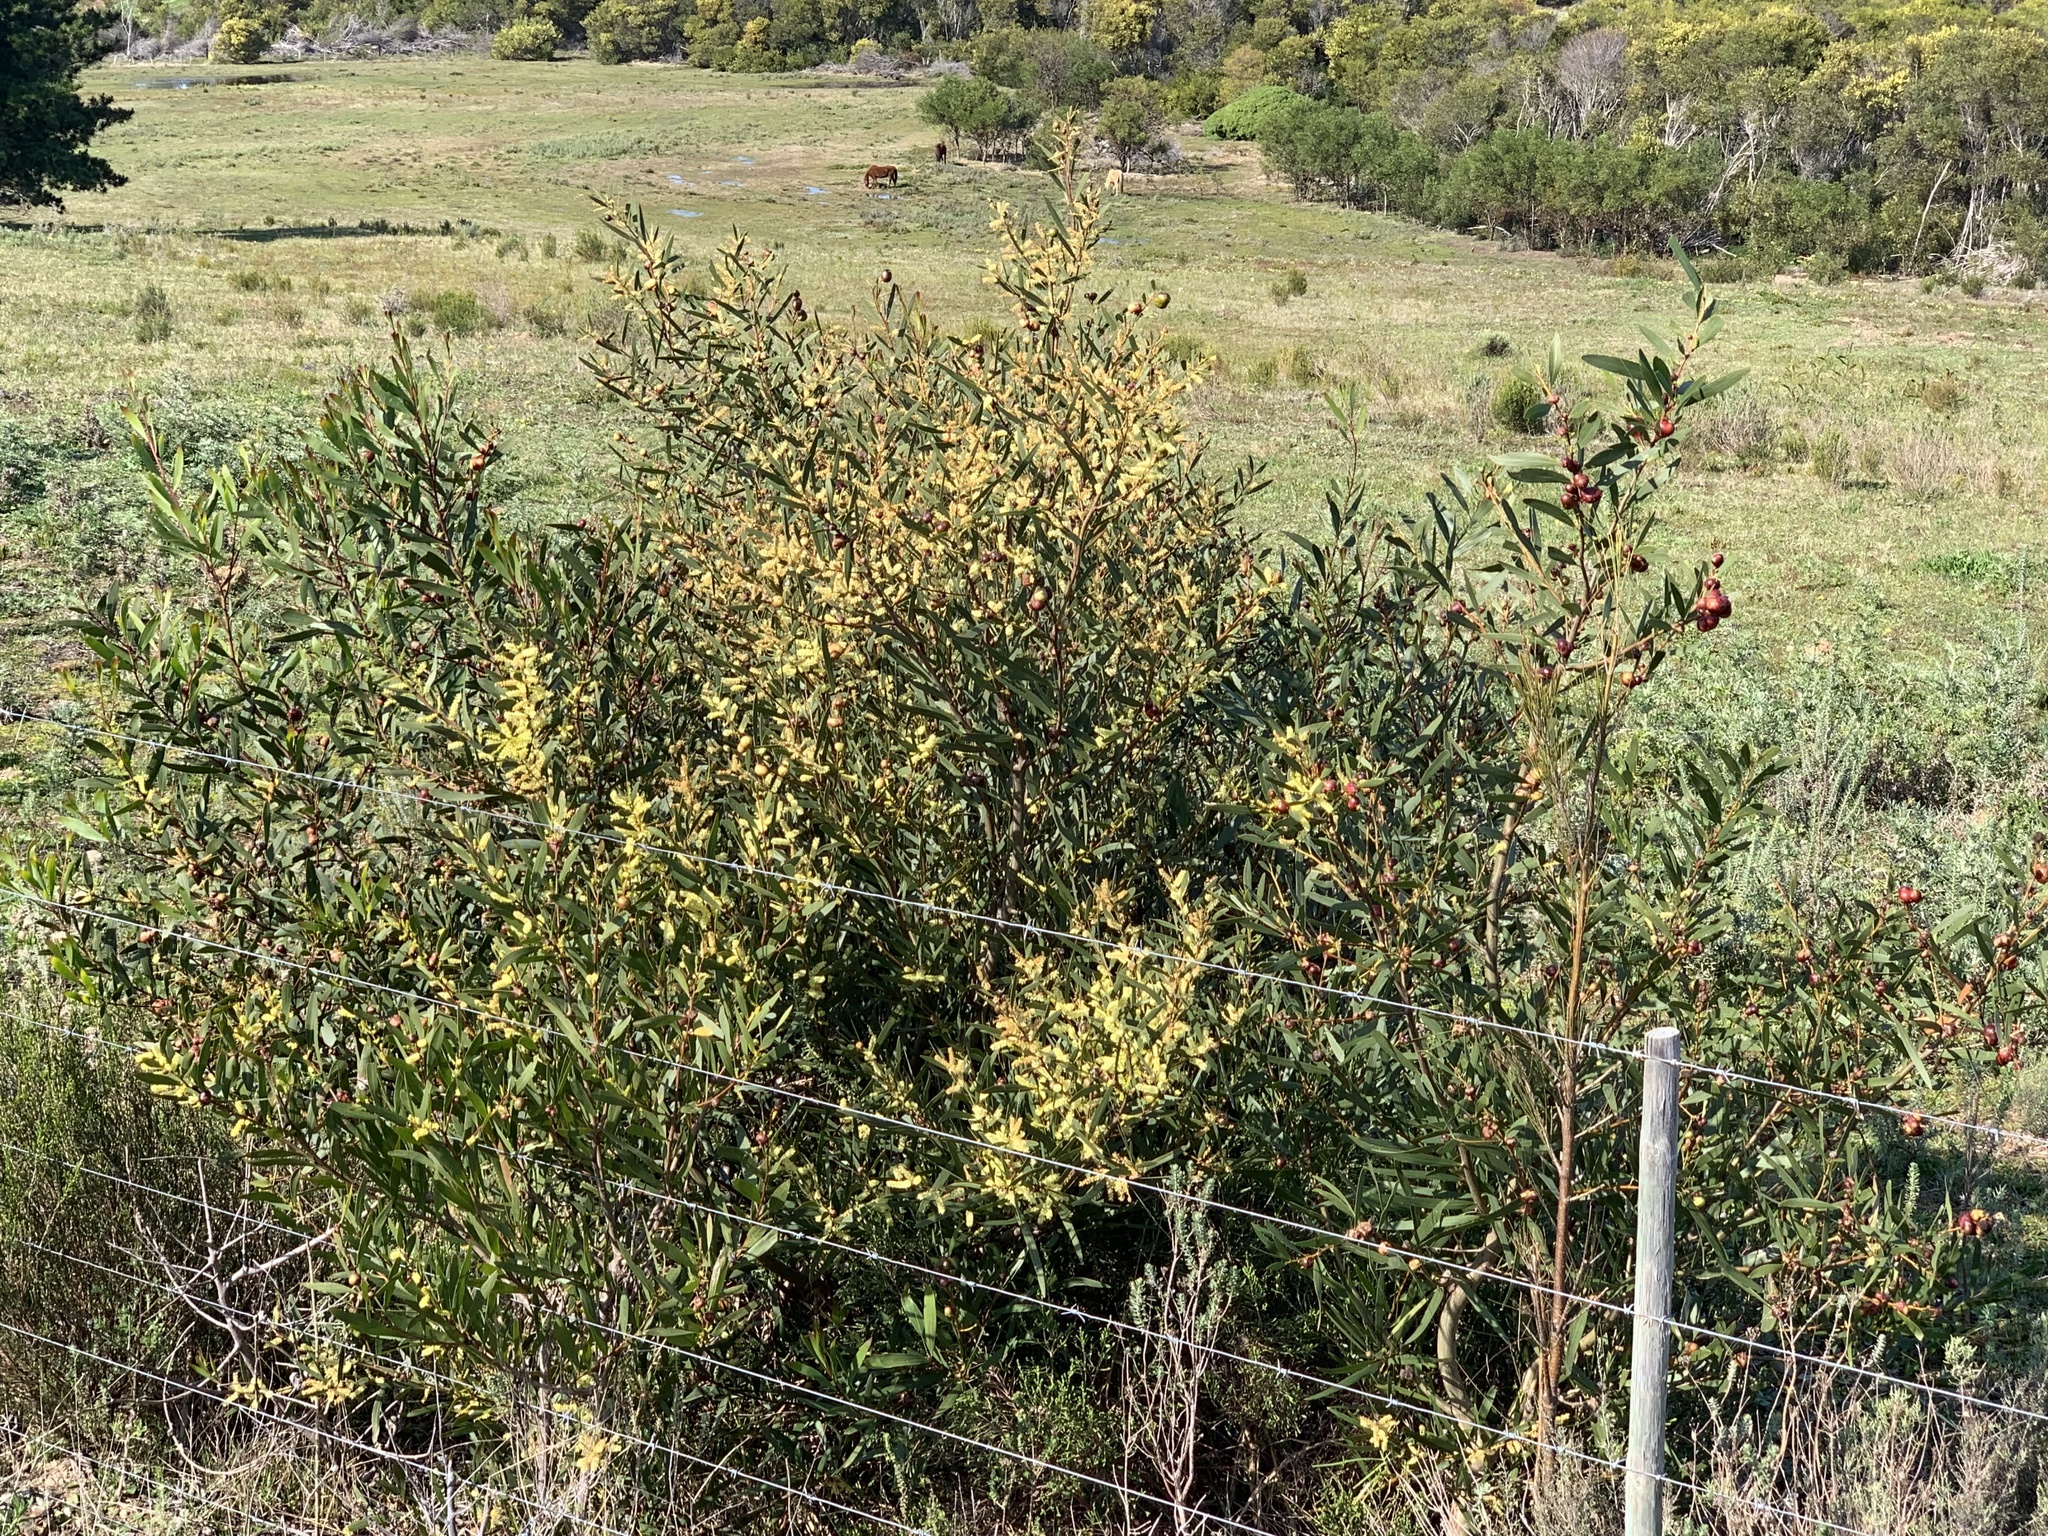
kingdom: Plantae
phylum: Tracheophyta
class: Magnoliopsida
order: Fabales
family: Fabaceae
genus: Acacia
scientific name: Acacia longifolia
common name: Sydney golden wattle
